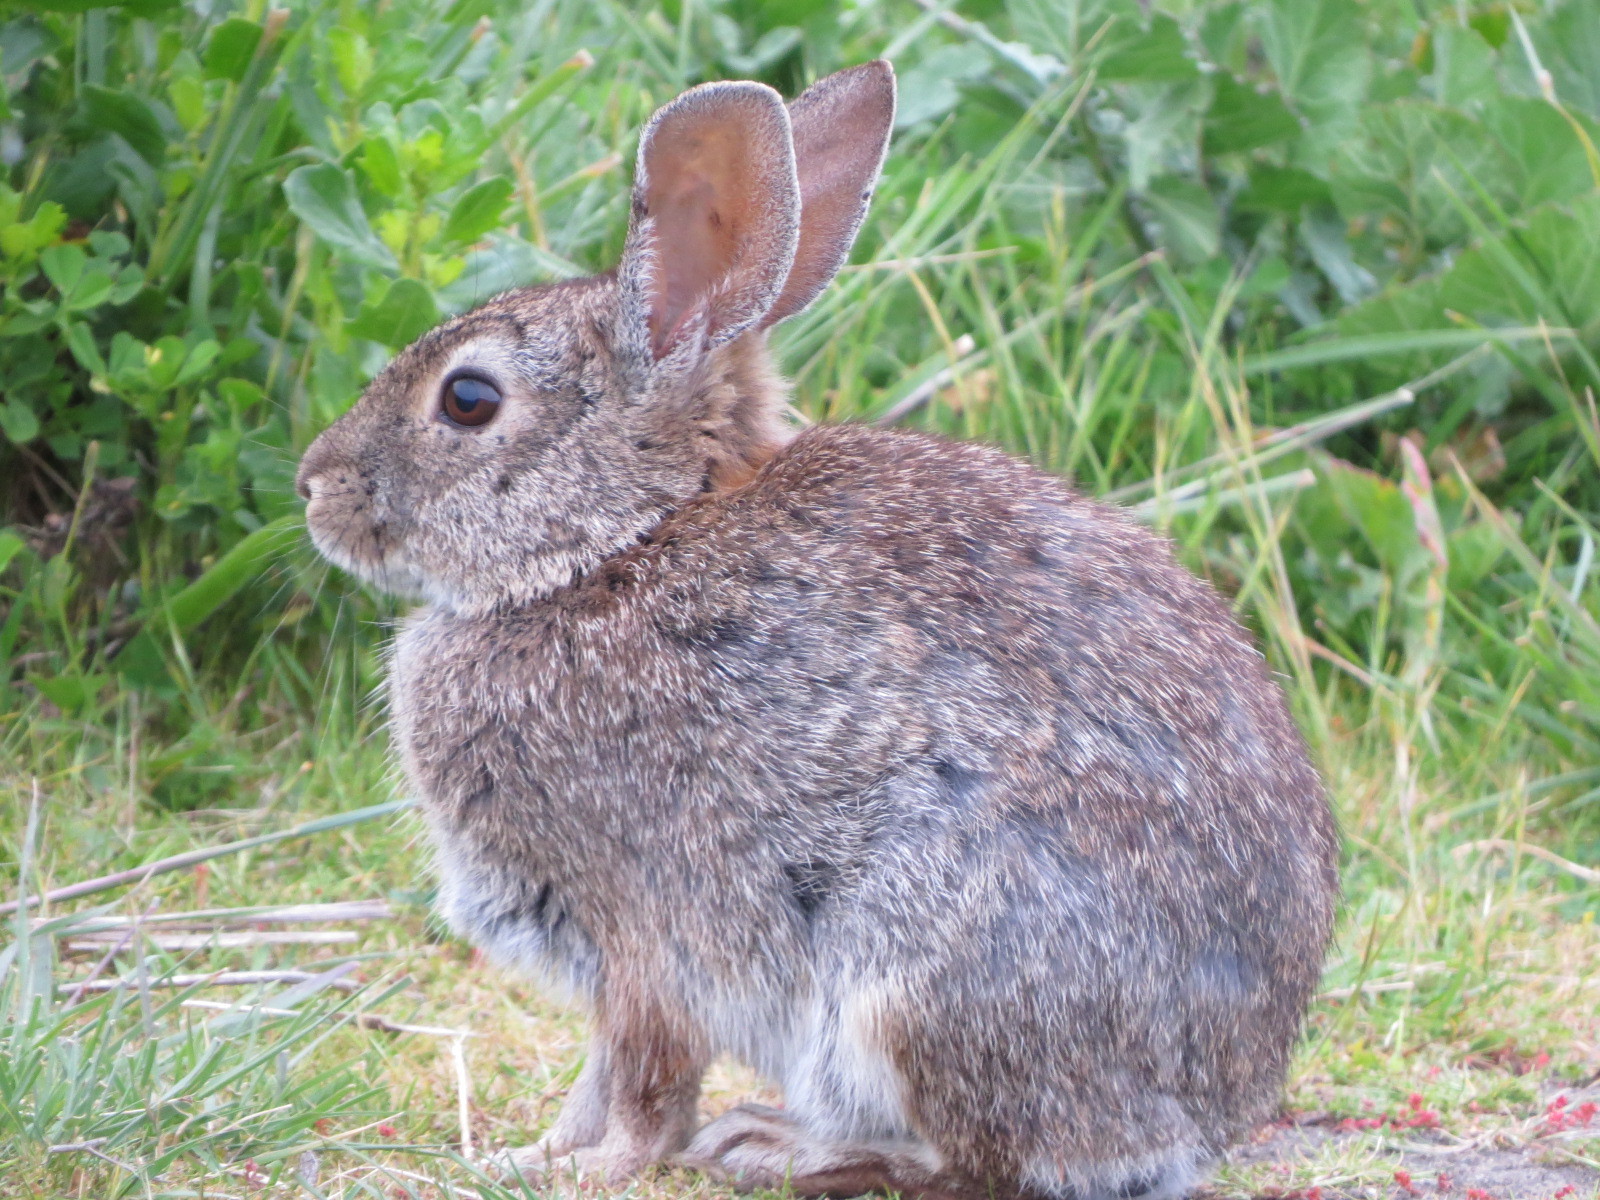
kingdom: Animalia
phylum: Chordata
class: Mammalia
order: Lagomorpha
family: Leporidae
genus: Sylvilagus
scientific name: Sylvilagus bachmani
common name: Brush rabbit
